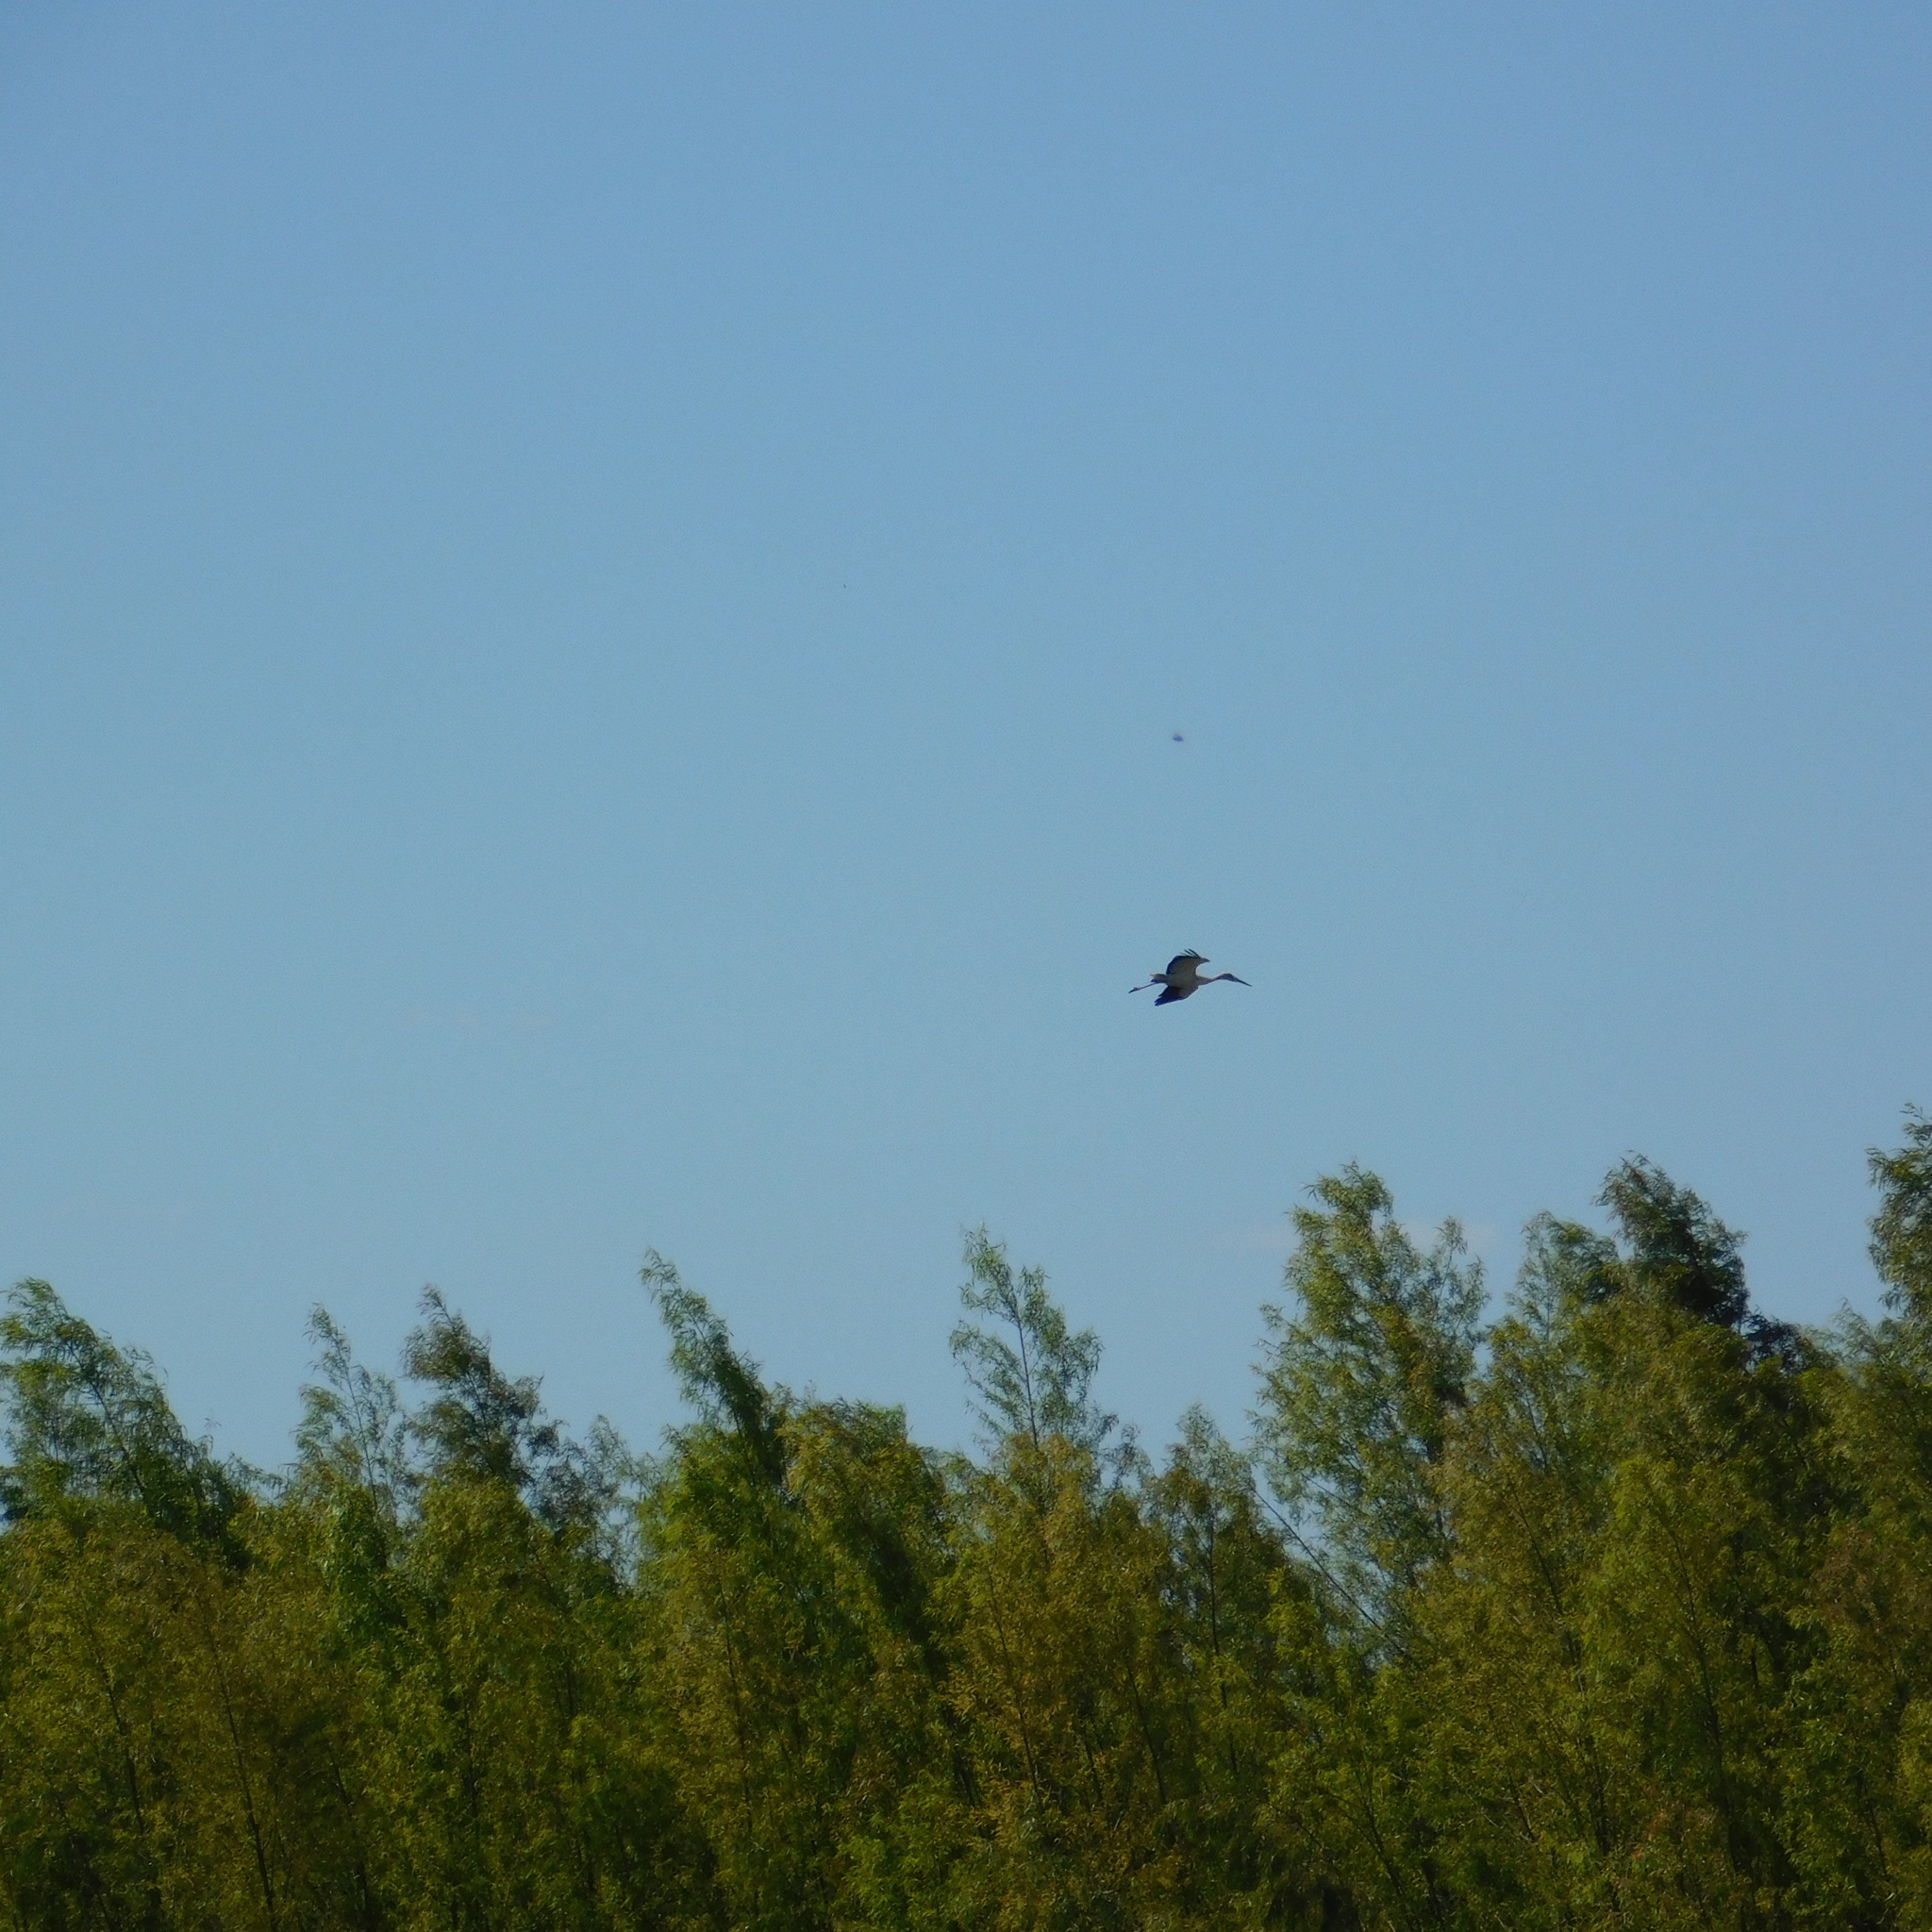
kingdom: Animalia
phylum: Chordata
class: Aves
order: Ciconiiformes
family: Ciconiidae
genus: Ciconia
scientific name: Ciconia maguari
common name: Maguari stork
